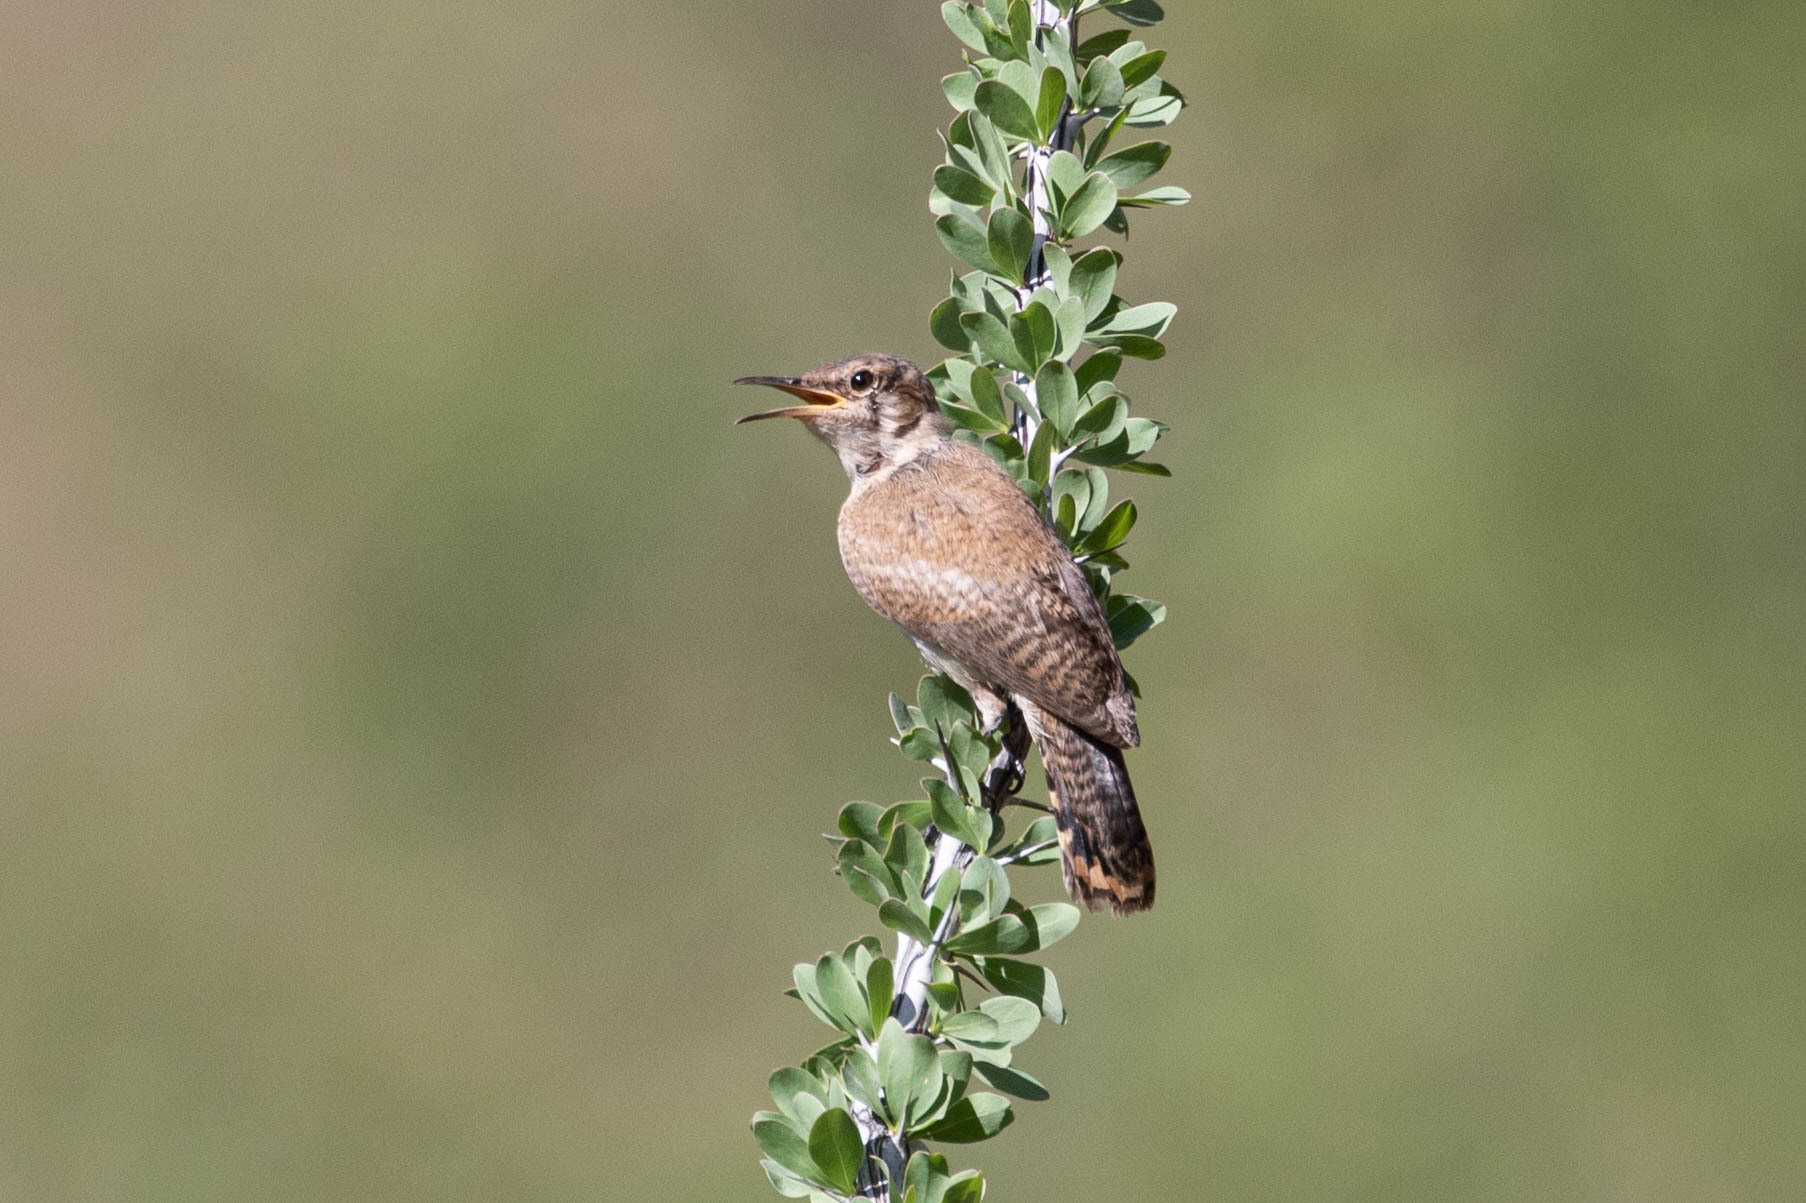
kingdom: Animalia
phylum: Chordata
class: Aves
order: Passeriformes
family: Troglodytidae
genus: Salpinctes
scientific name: Salpinctes obsoletus
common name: Rock wren
